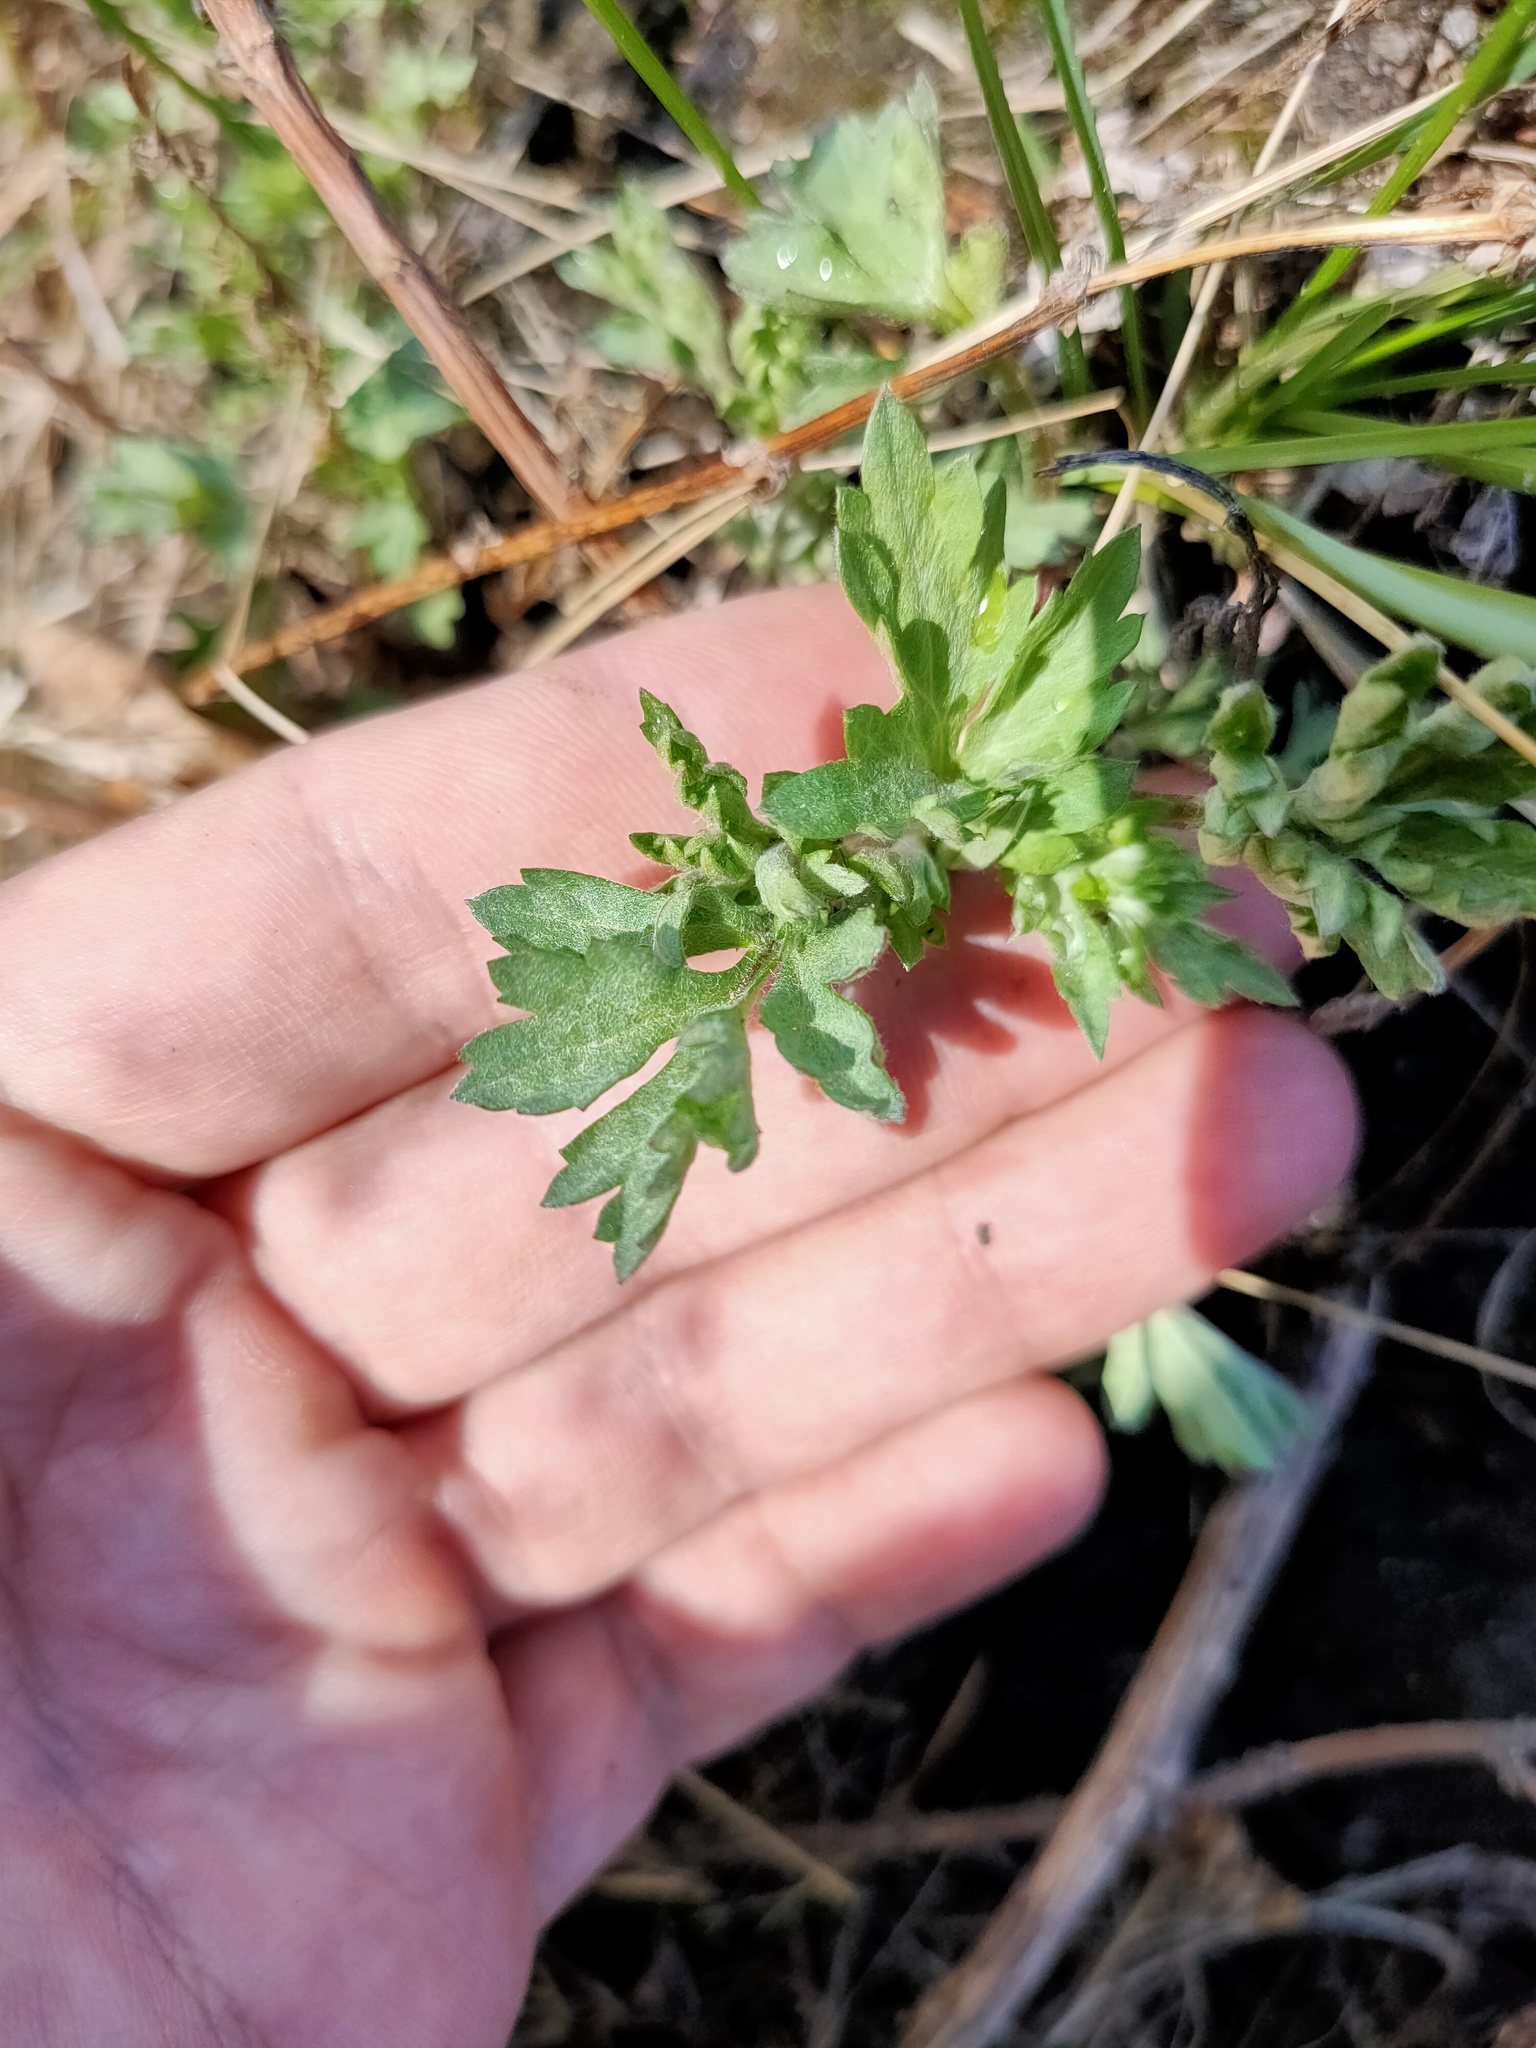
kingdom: Plantae
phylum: Tracheophyta
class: Magnoliopsida
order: Asterales
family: Asteraceae
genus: Artemisia
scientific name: Artemisia vulgaris
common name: Mugwort
